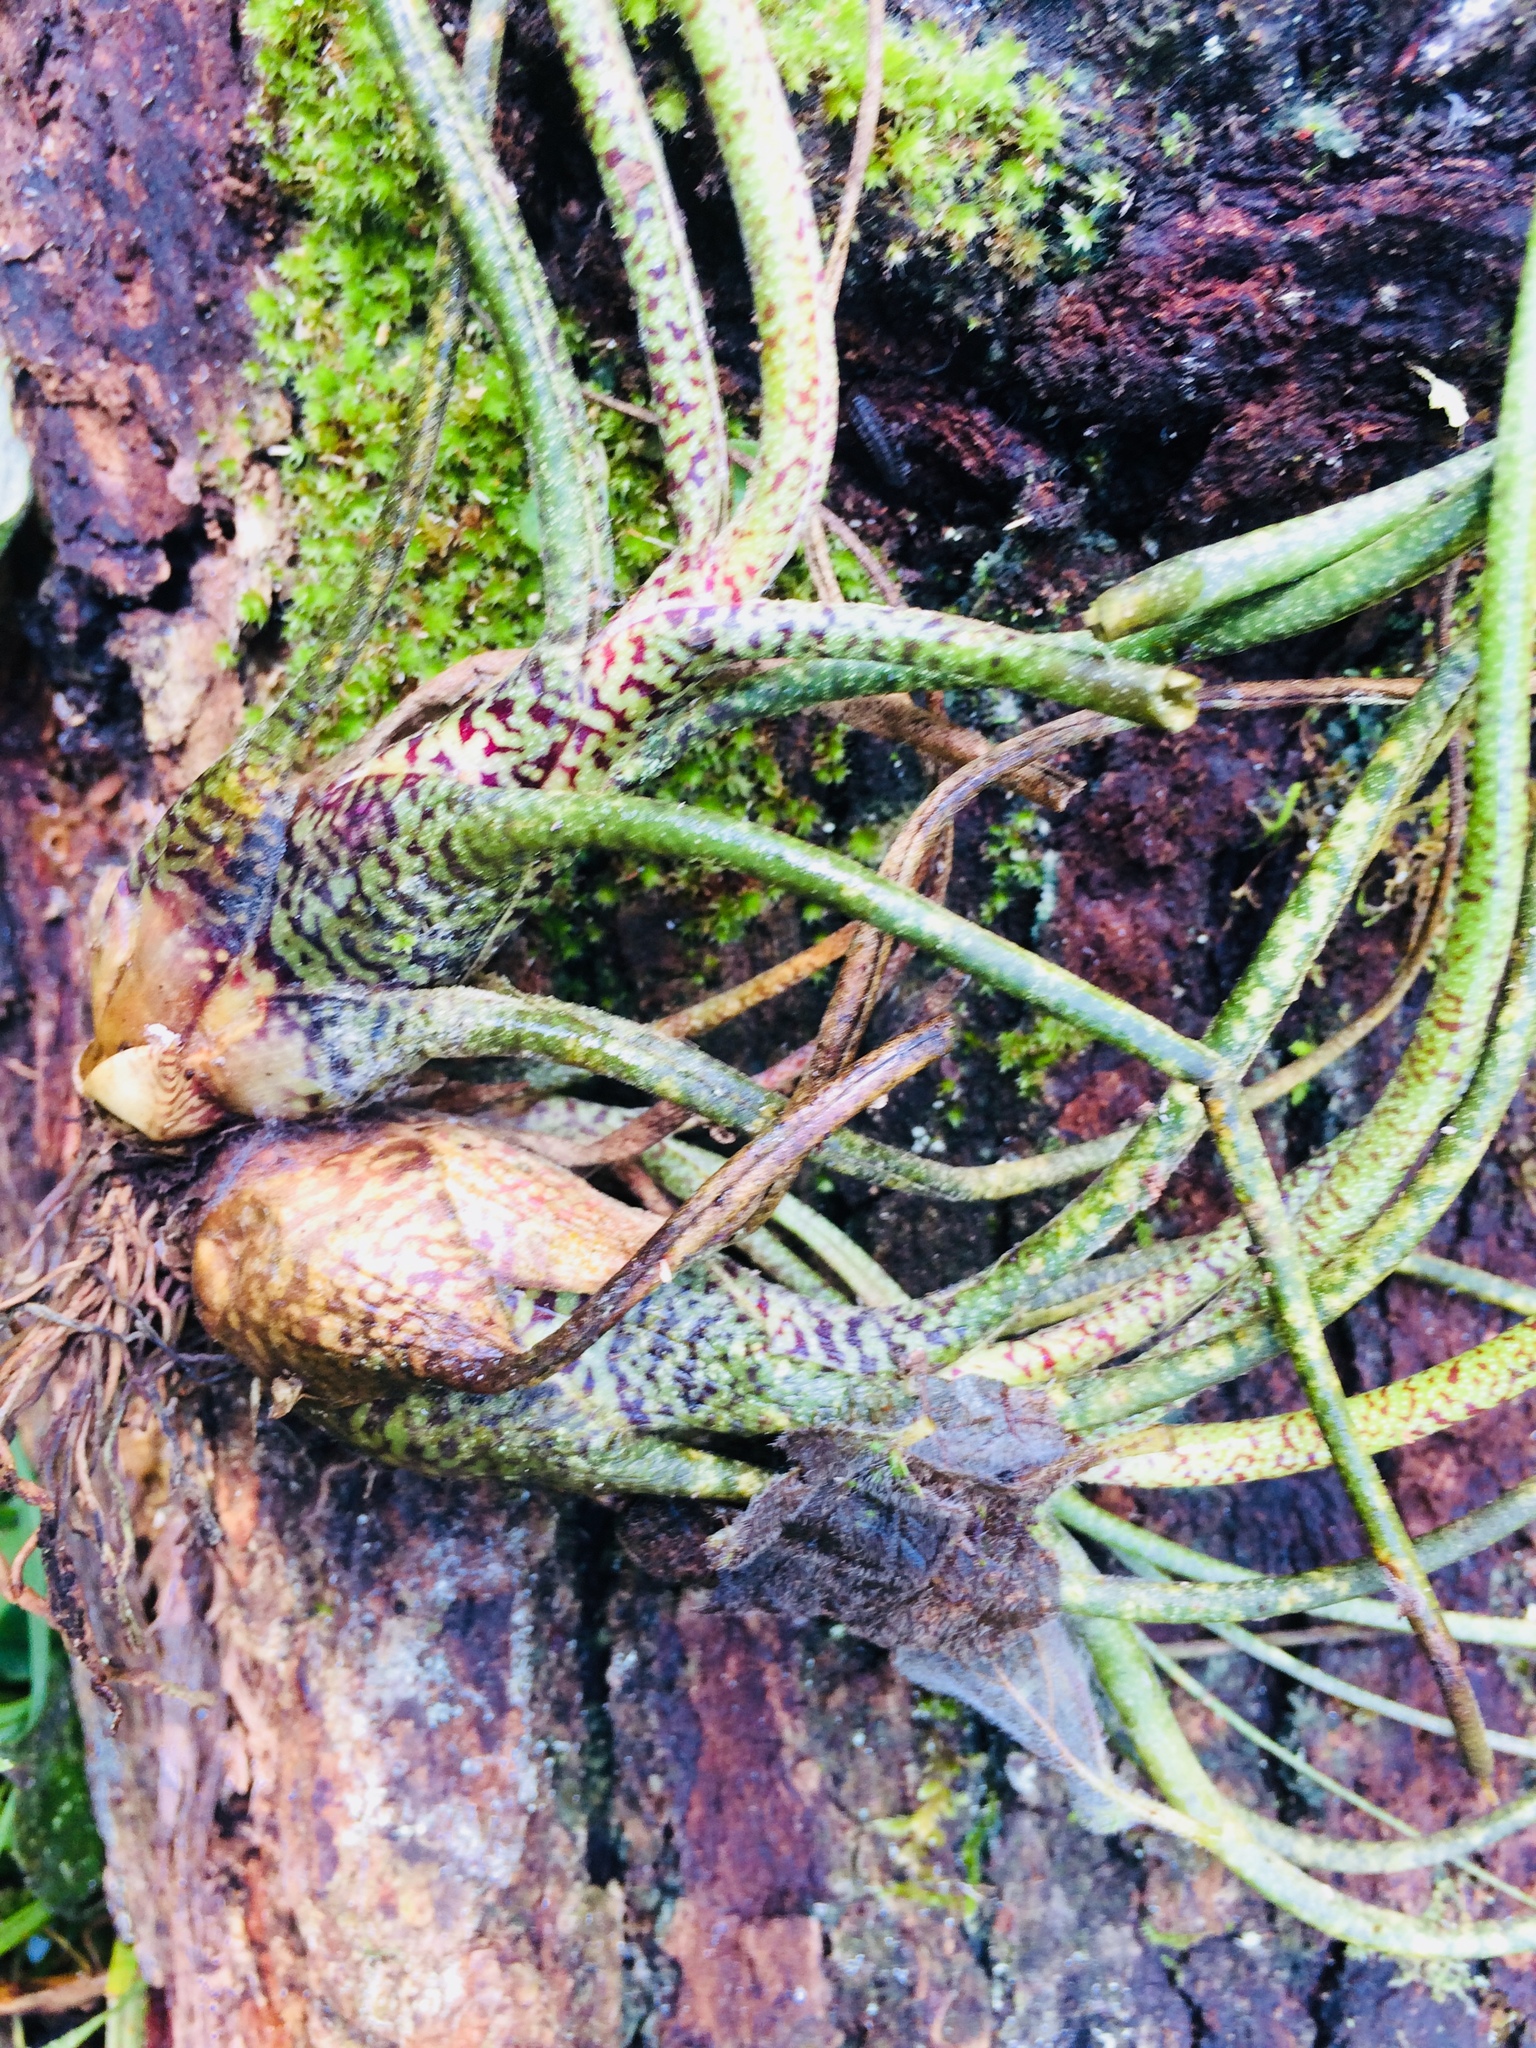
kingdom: Plantae
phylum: Tracheophyta
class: Liliopsida
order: Poales
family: Bromeliaceae
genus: Tillandsia
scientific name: Tillandsia butzii
